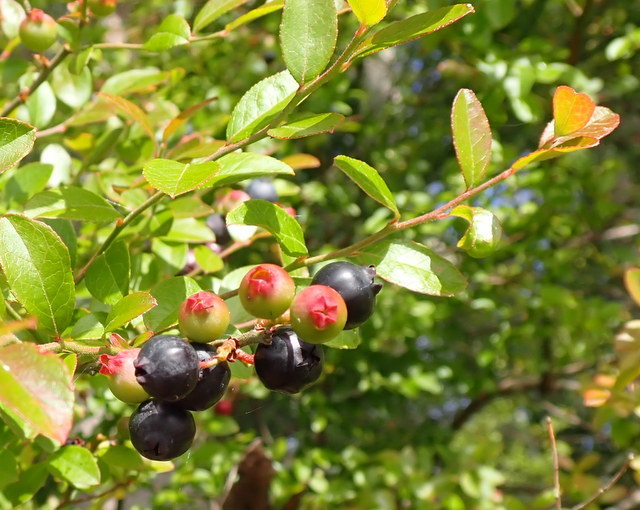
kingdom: Plantae
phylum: Tracheophyta
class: Magnoliopsida
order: Ericales
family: Ericaceae
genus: Vaccinium
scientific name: Vaccinium corymbosum
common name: Blueberry
